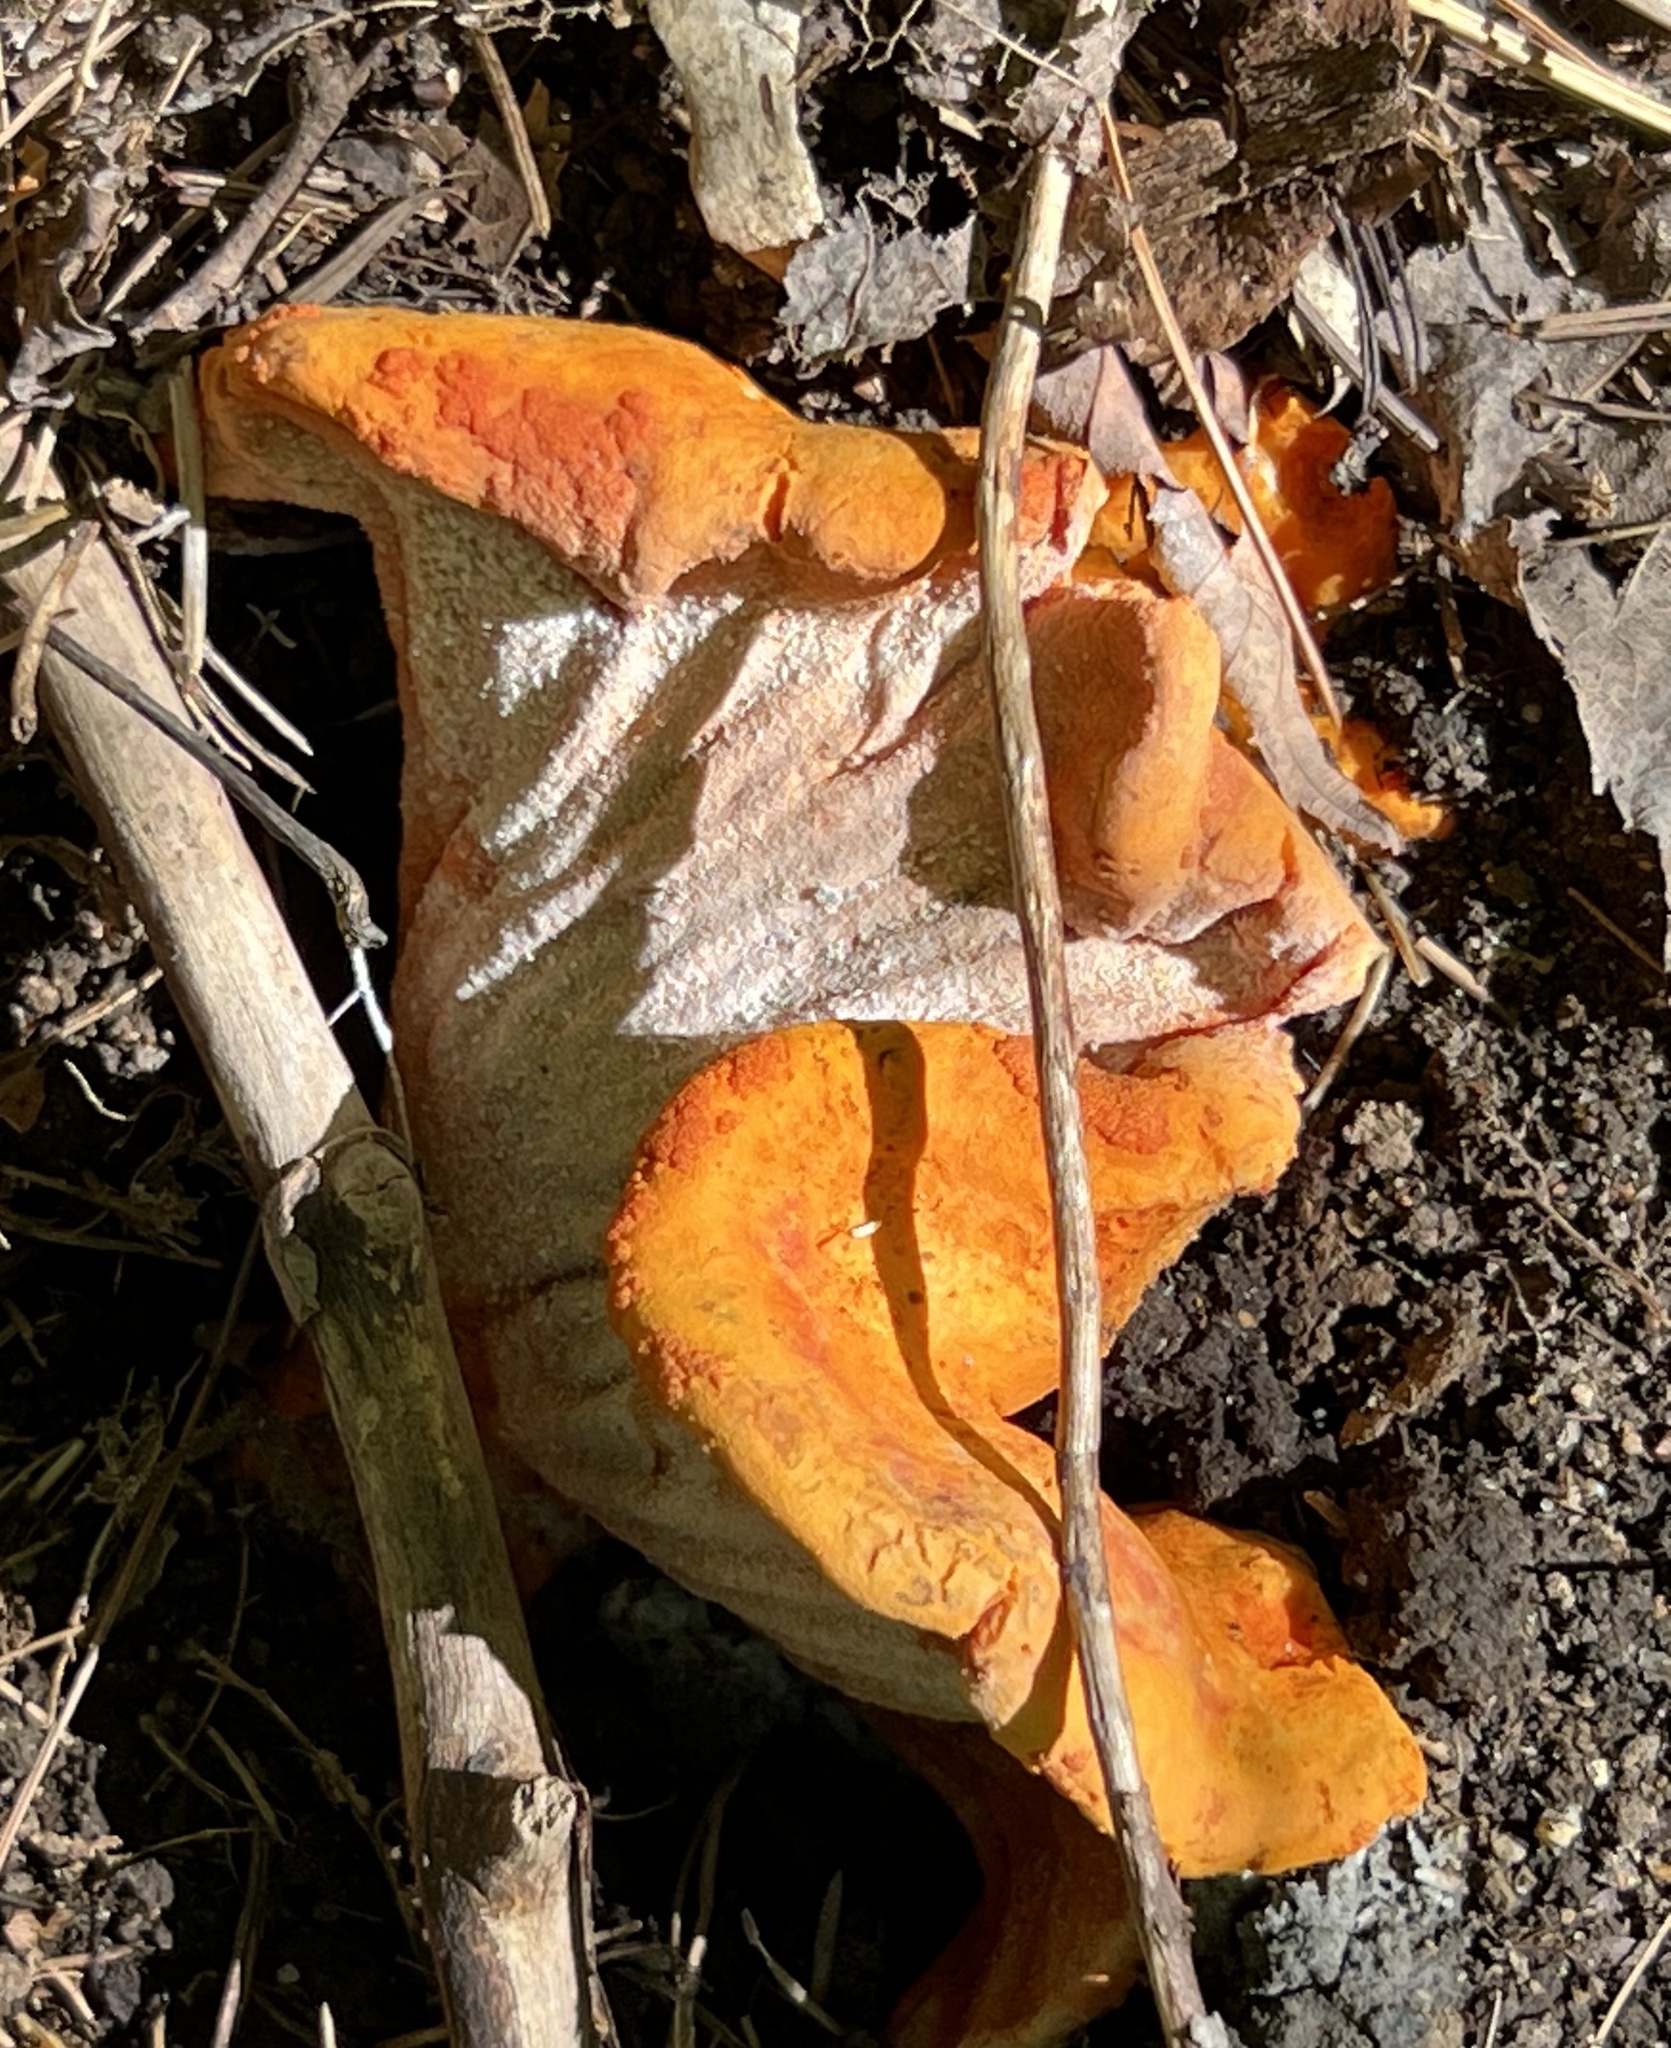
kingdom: Fungi
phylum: Ascomycota
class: Sordariomycetes
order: Hypocreales
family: Hypocreaceae
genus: Hypomyces
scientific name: Hypomyces lactifluorum
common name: Lobster mushroom
